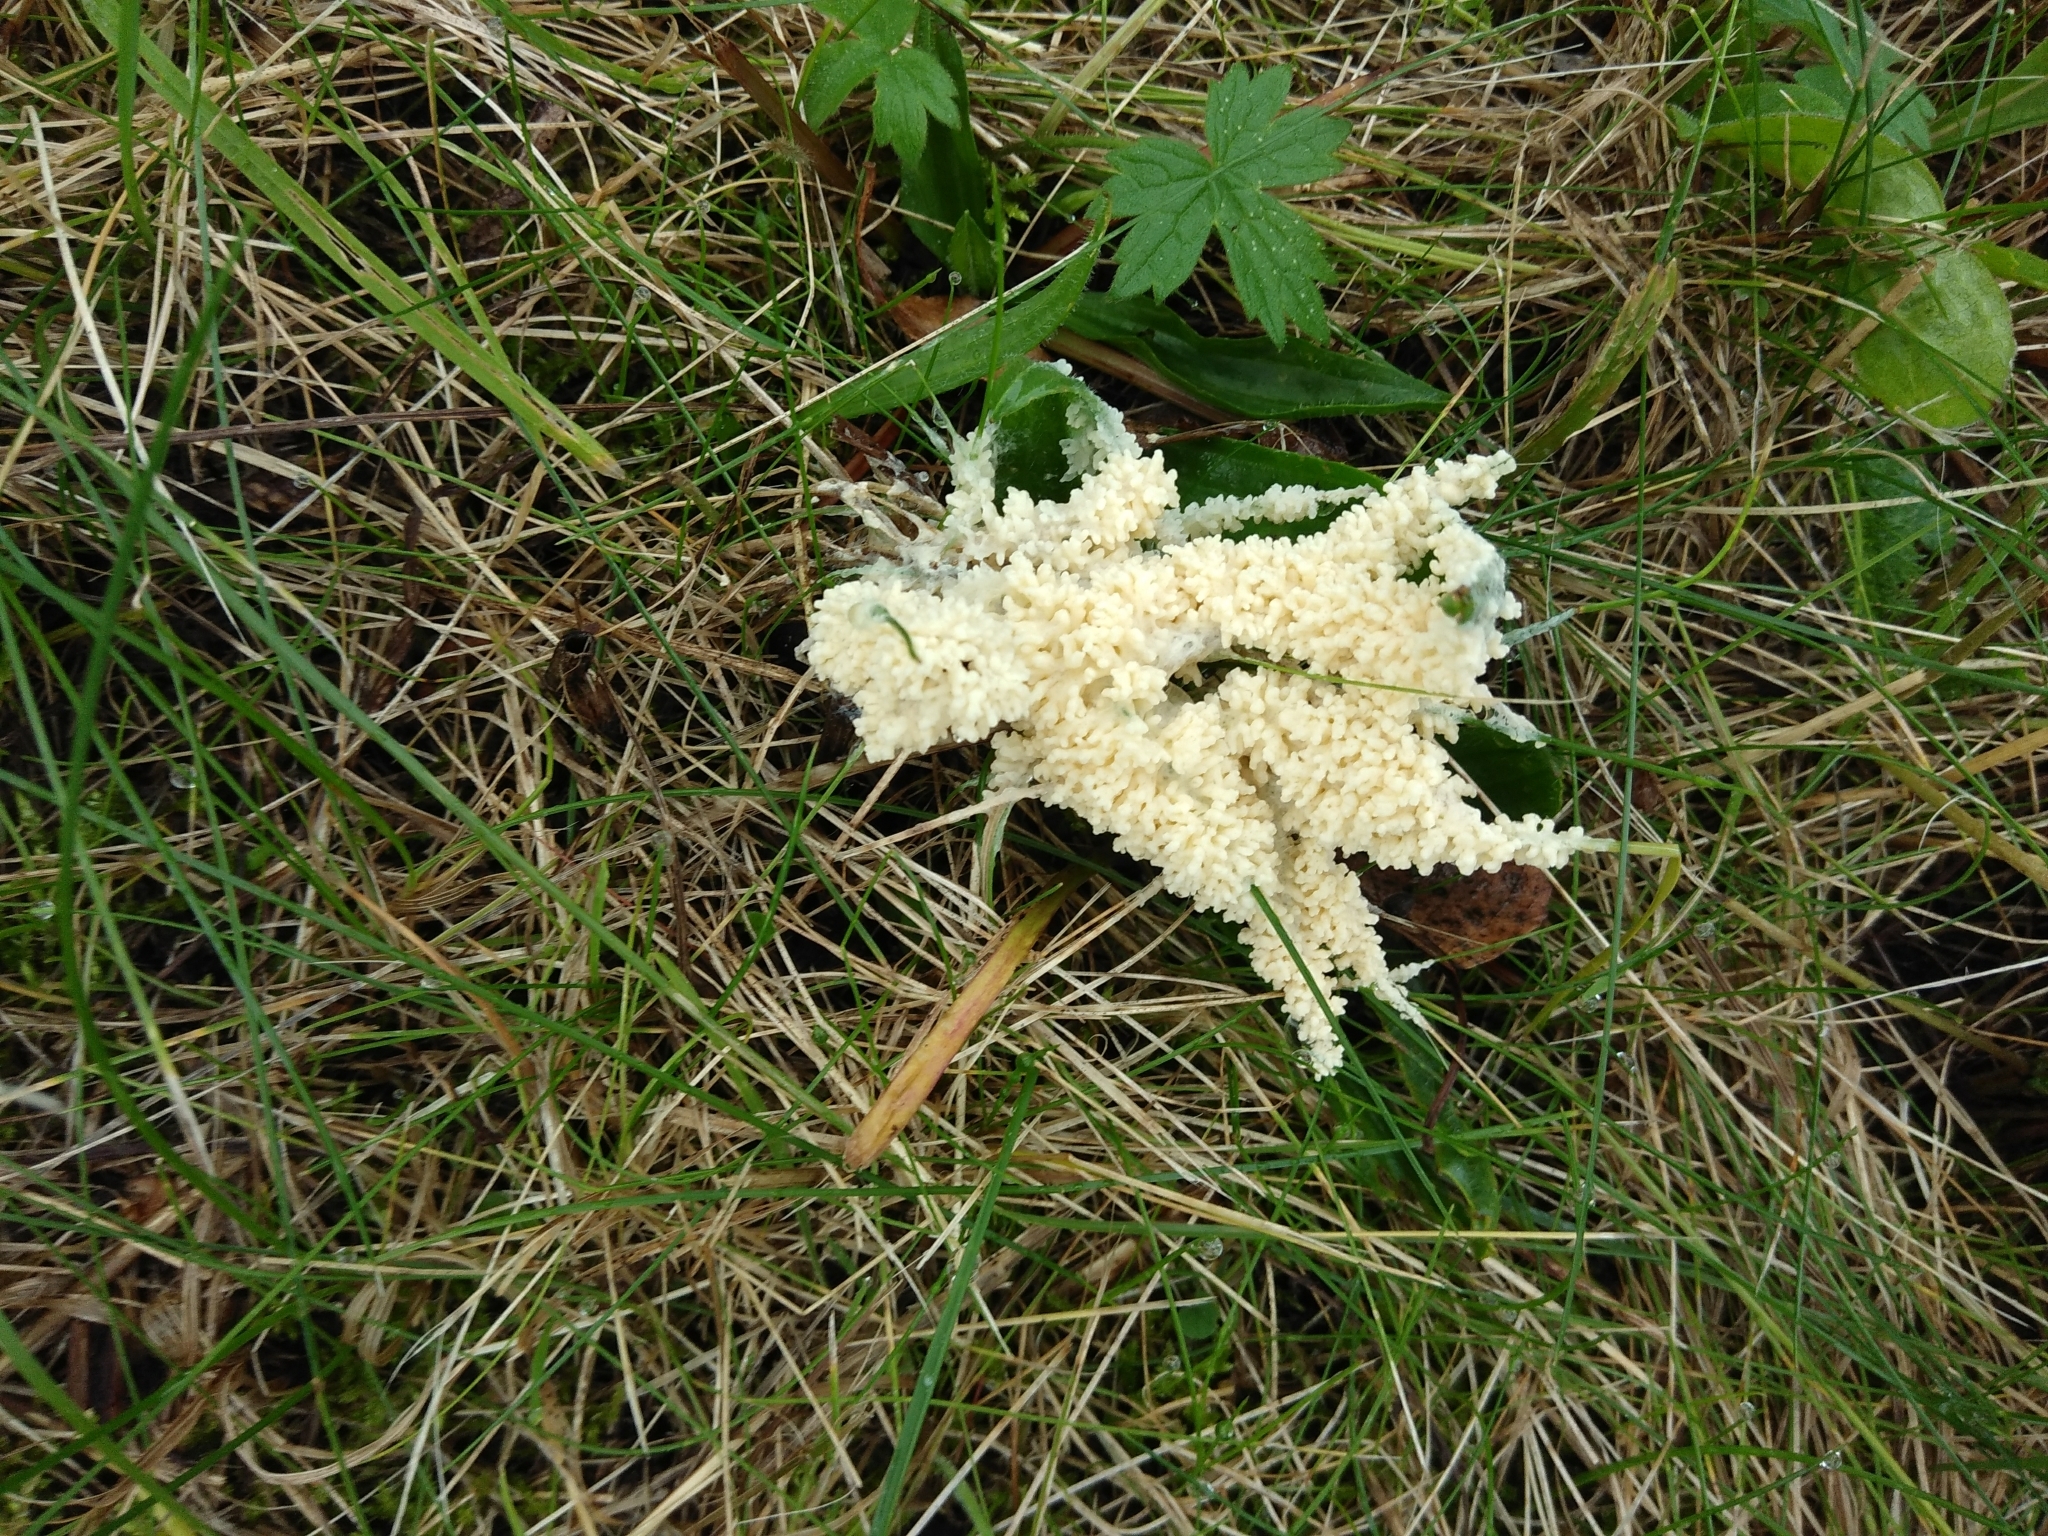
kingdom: Protozoa
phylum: Mycetozoa
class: Myxomycetes
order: Physarales
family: Physaraceae
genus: Didymium
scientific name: Didymium
